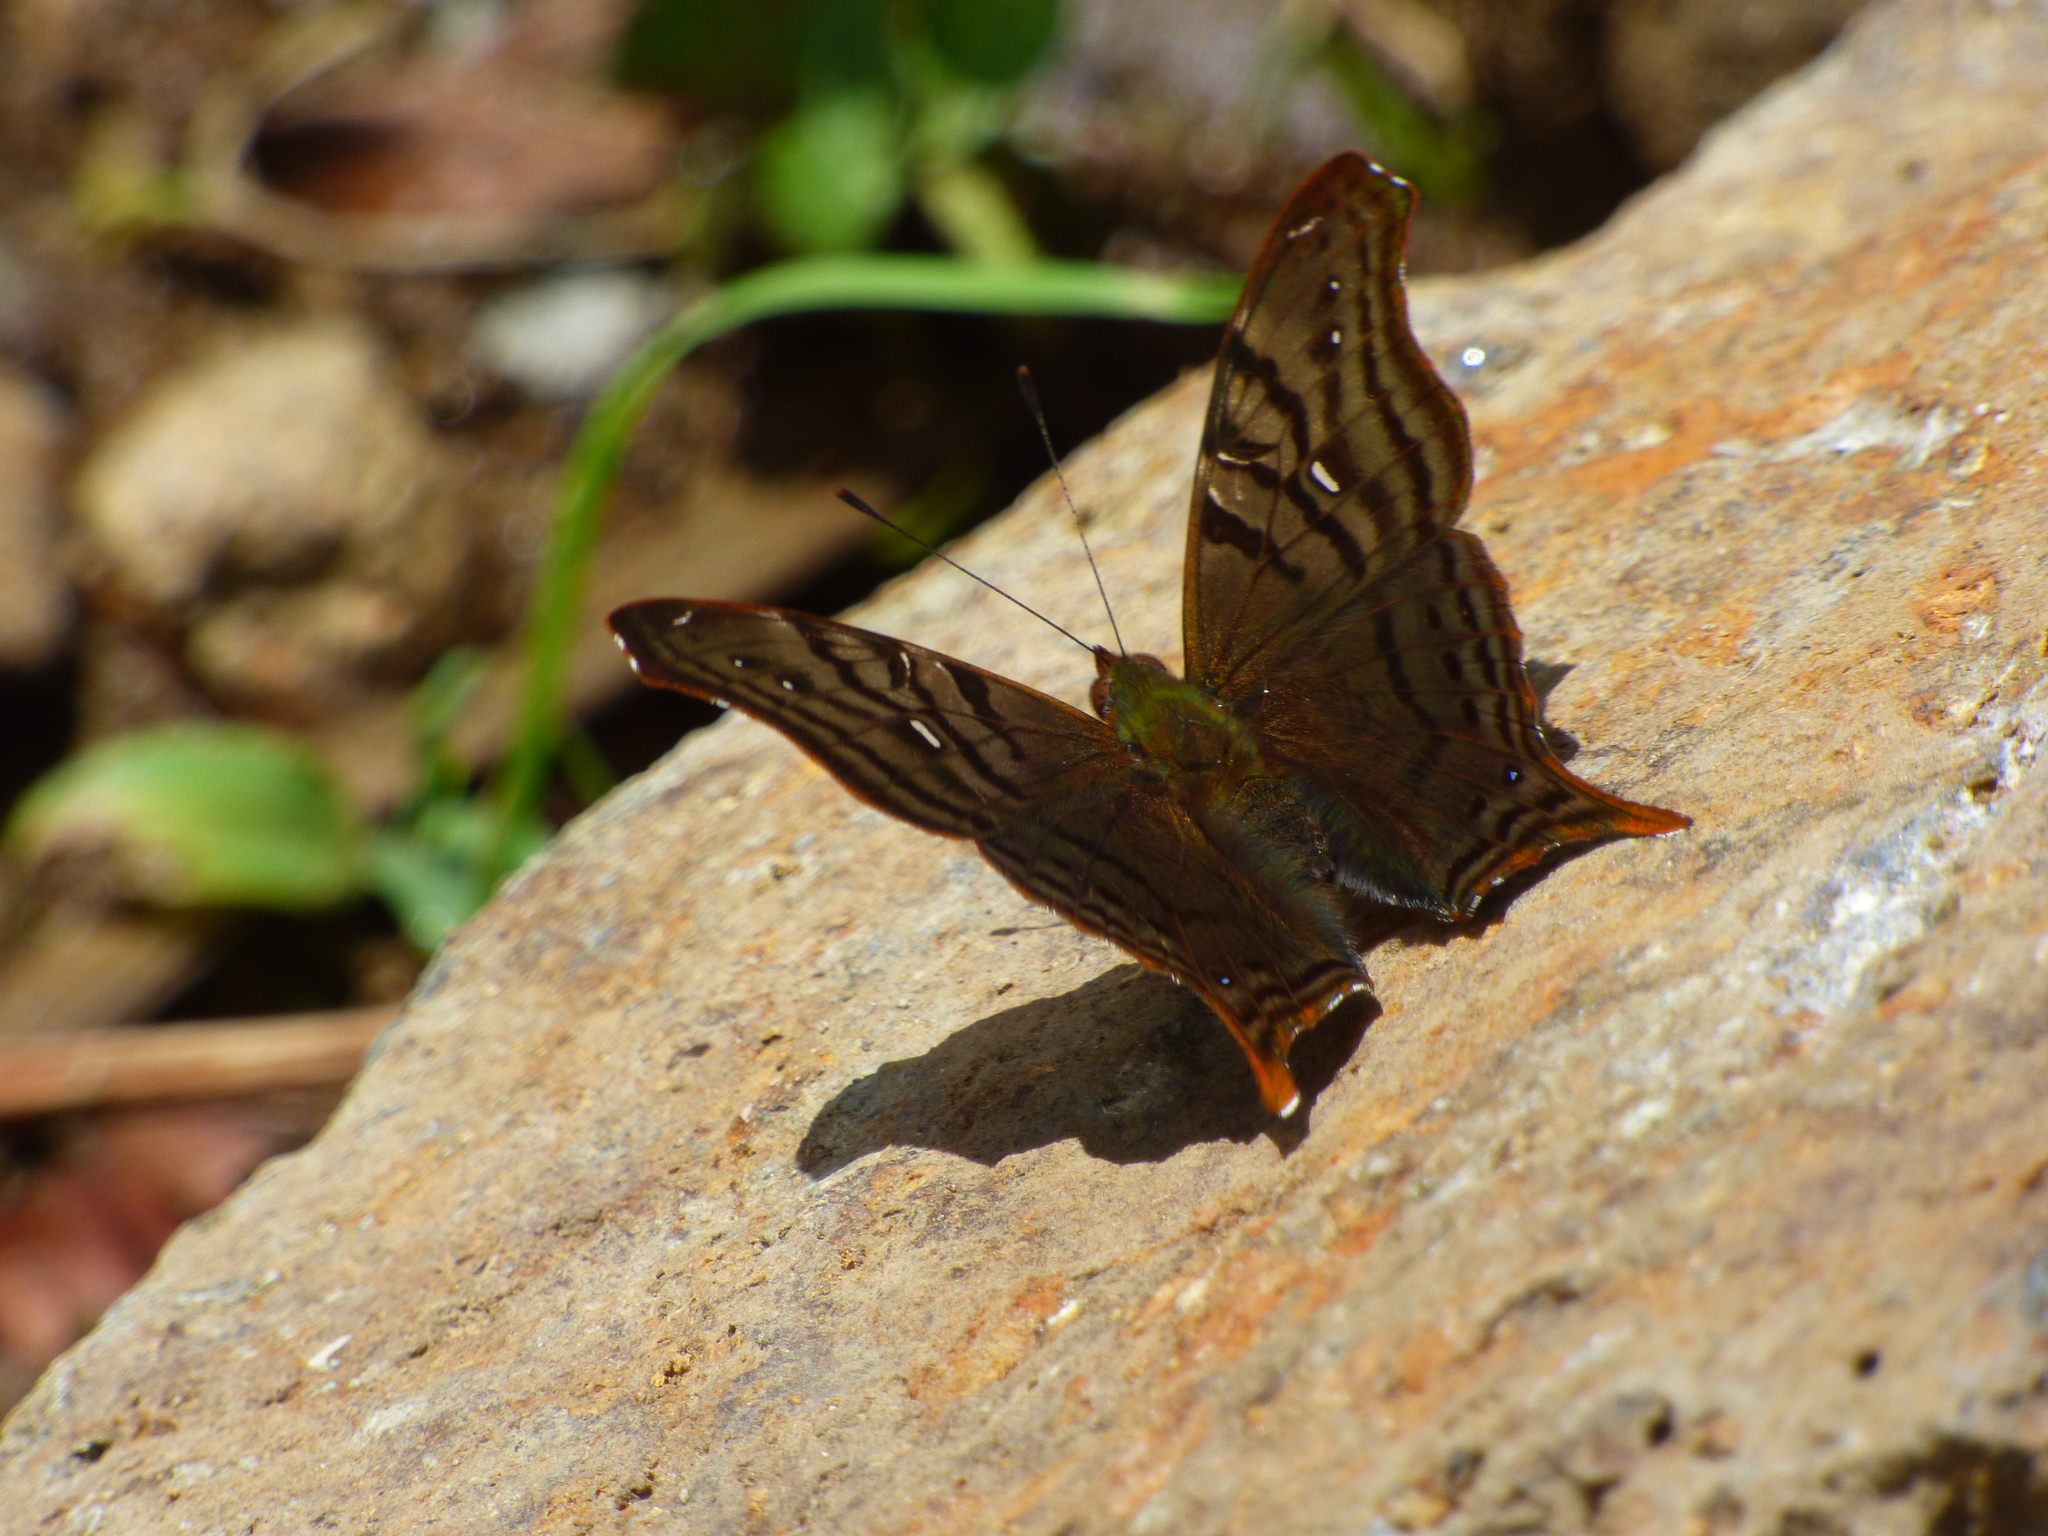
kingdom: Animalia
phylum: Arthropoda
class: Insecta
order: Lepidoptera
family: Nymphalidae
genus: Hypanartia
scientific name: Hypanartia dione
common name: Banded mapwing
